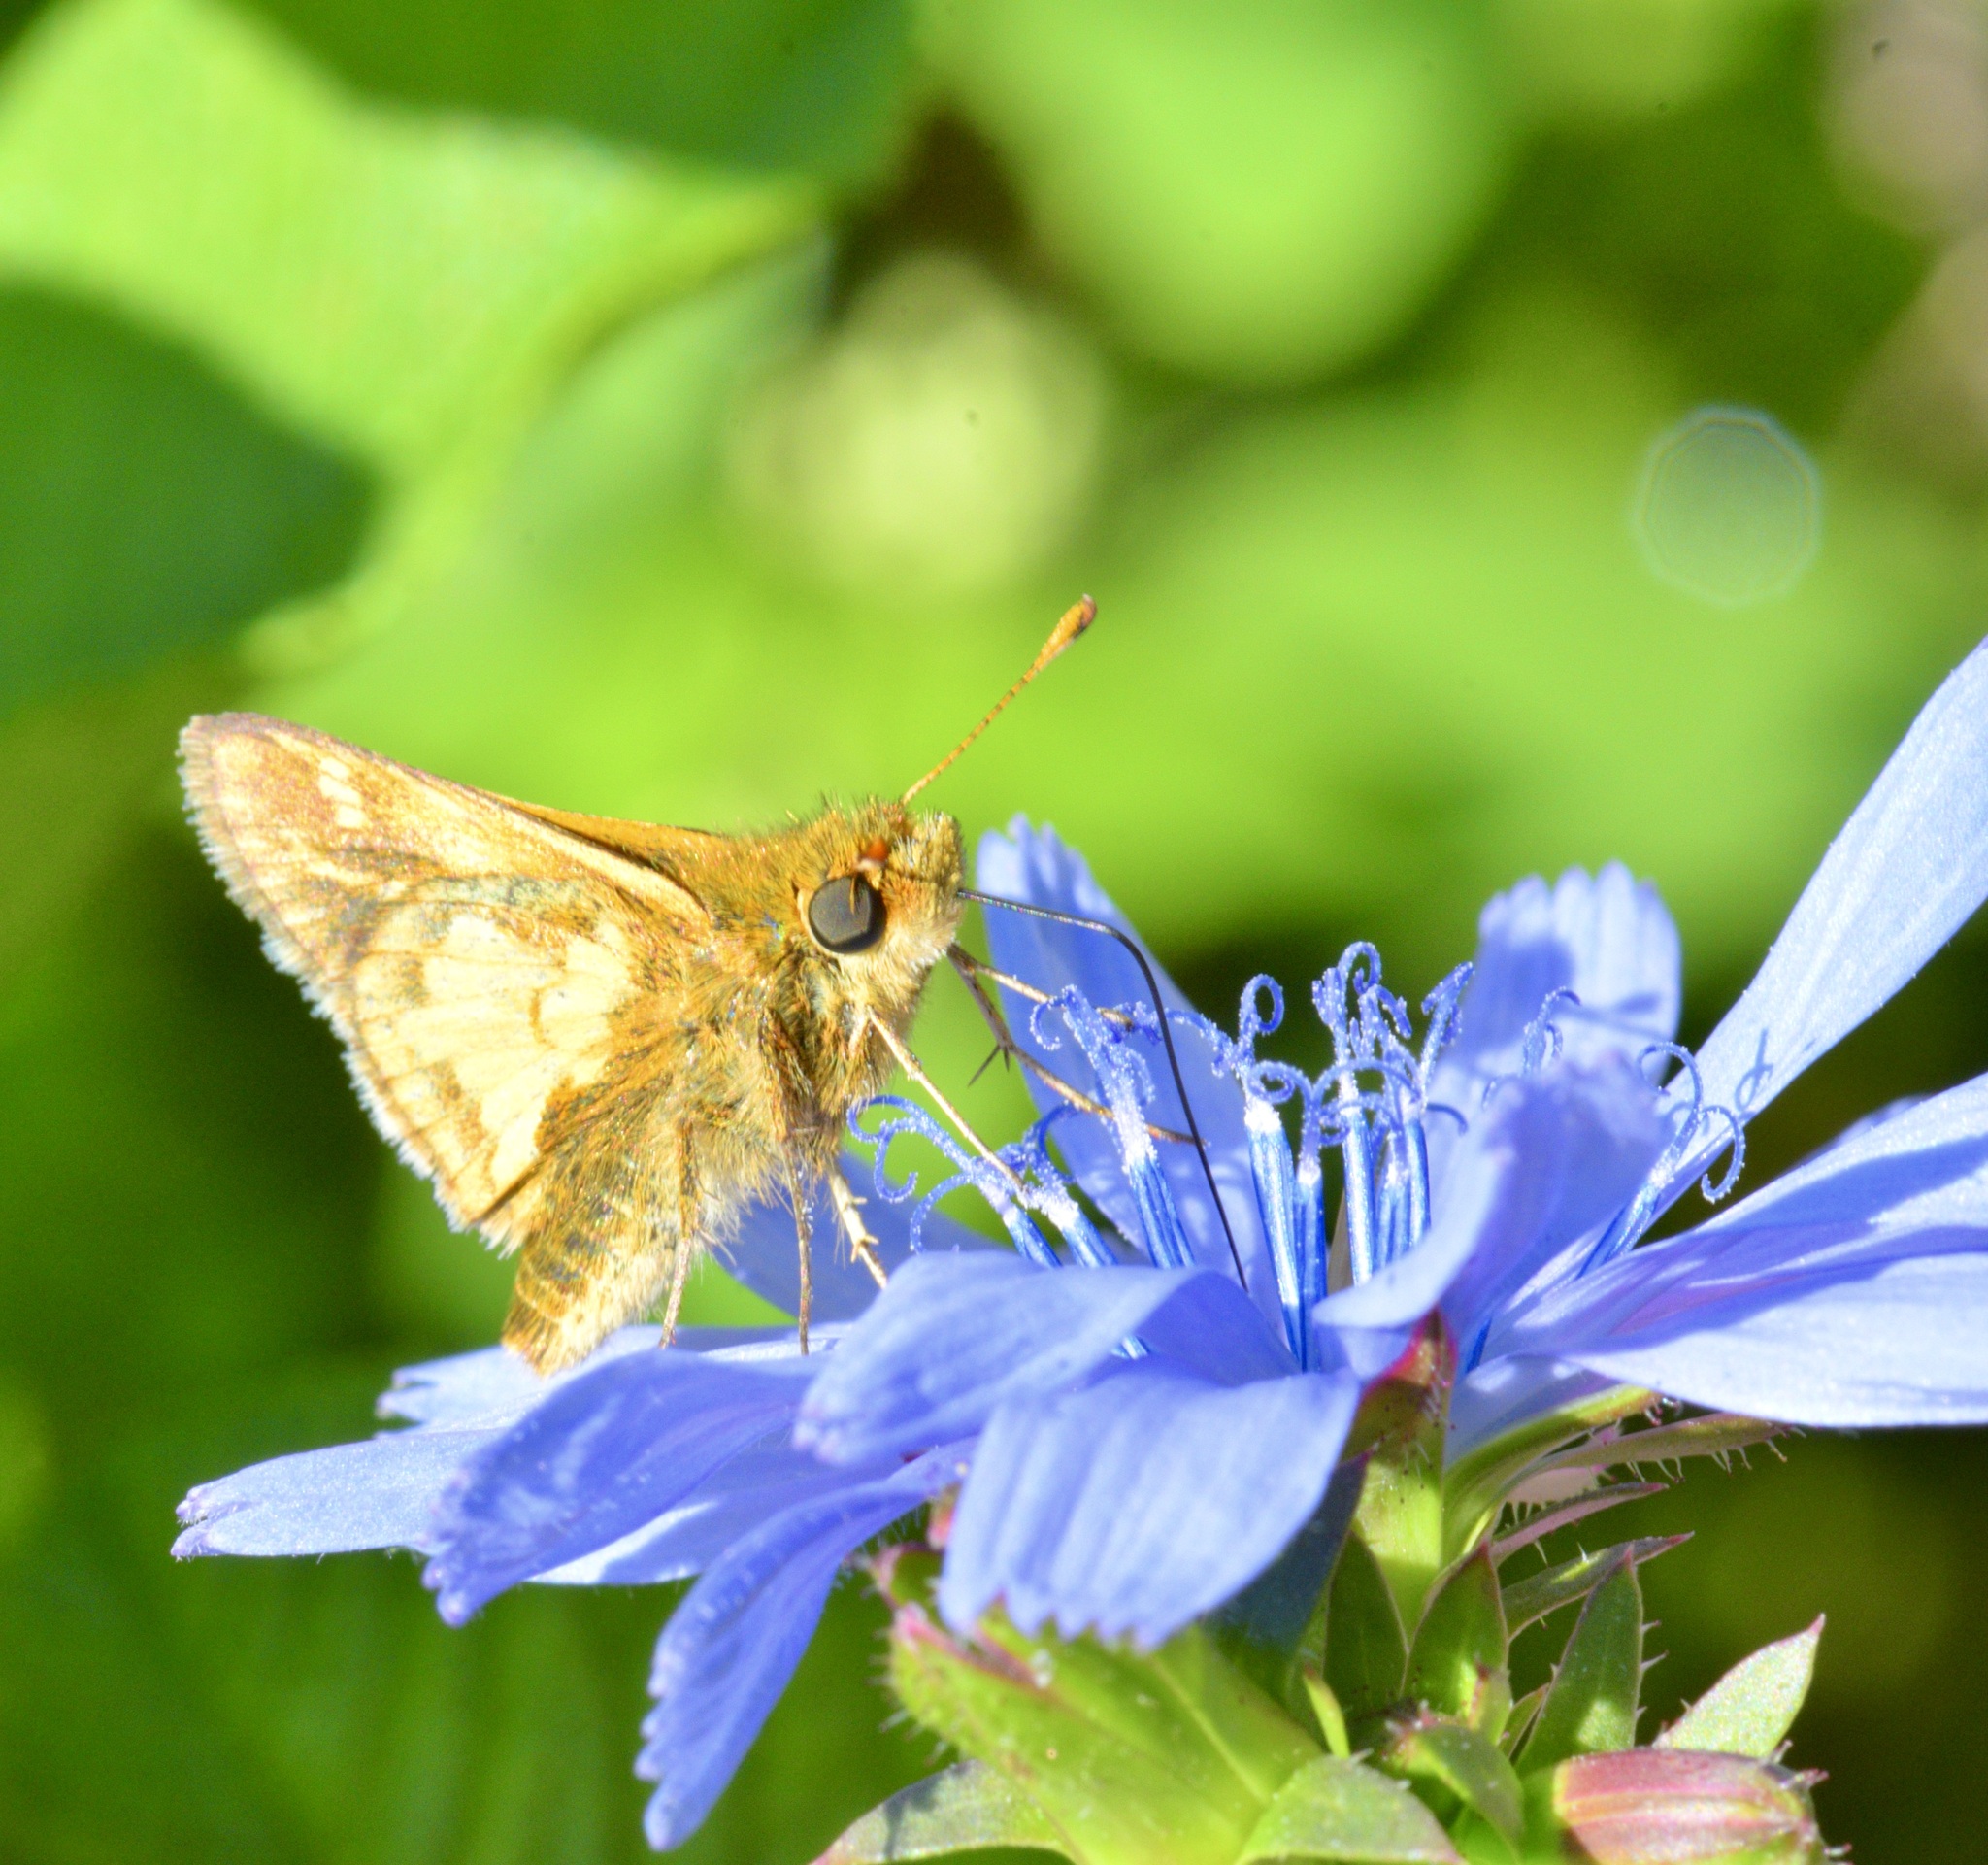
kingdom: Animalia
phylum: Arthropoda
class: Insecta
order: Lepidoptera
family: Hesperiidae
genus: Polites
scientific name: Polites coras
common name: Peck's skipper
